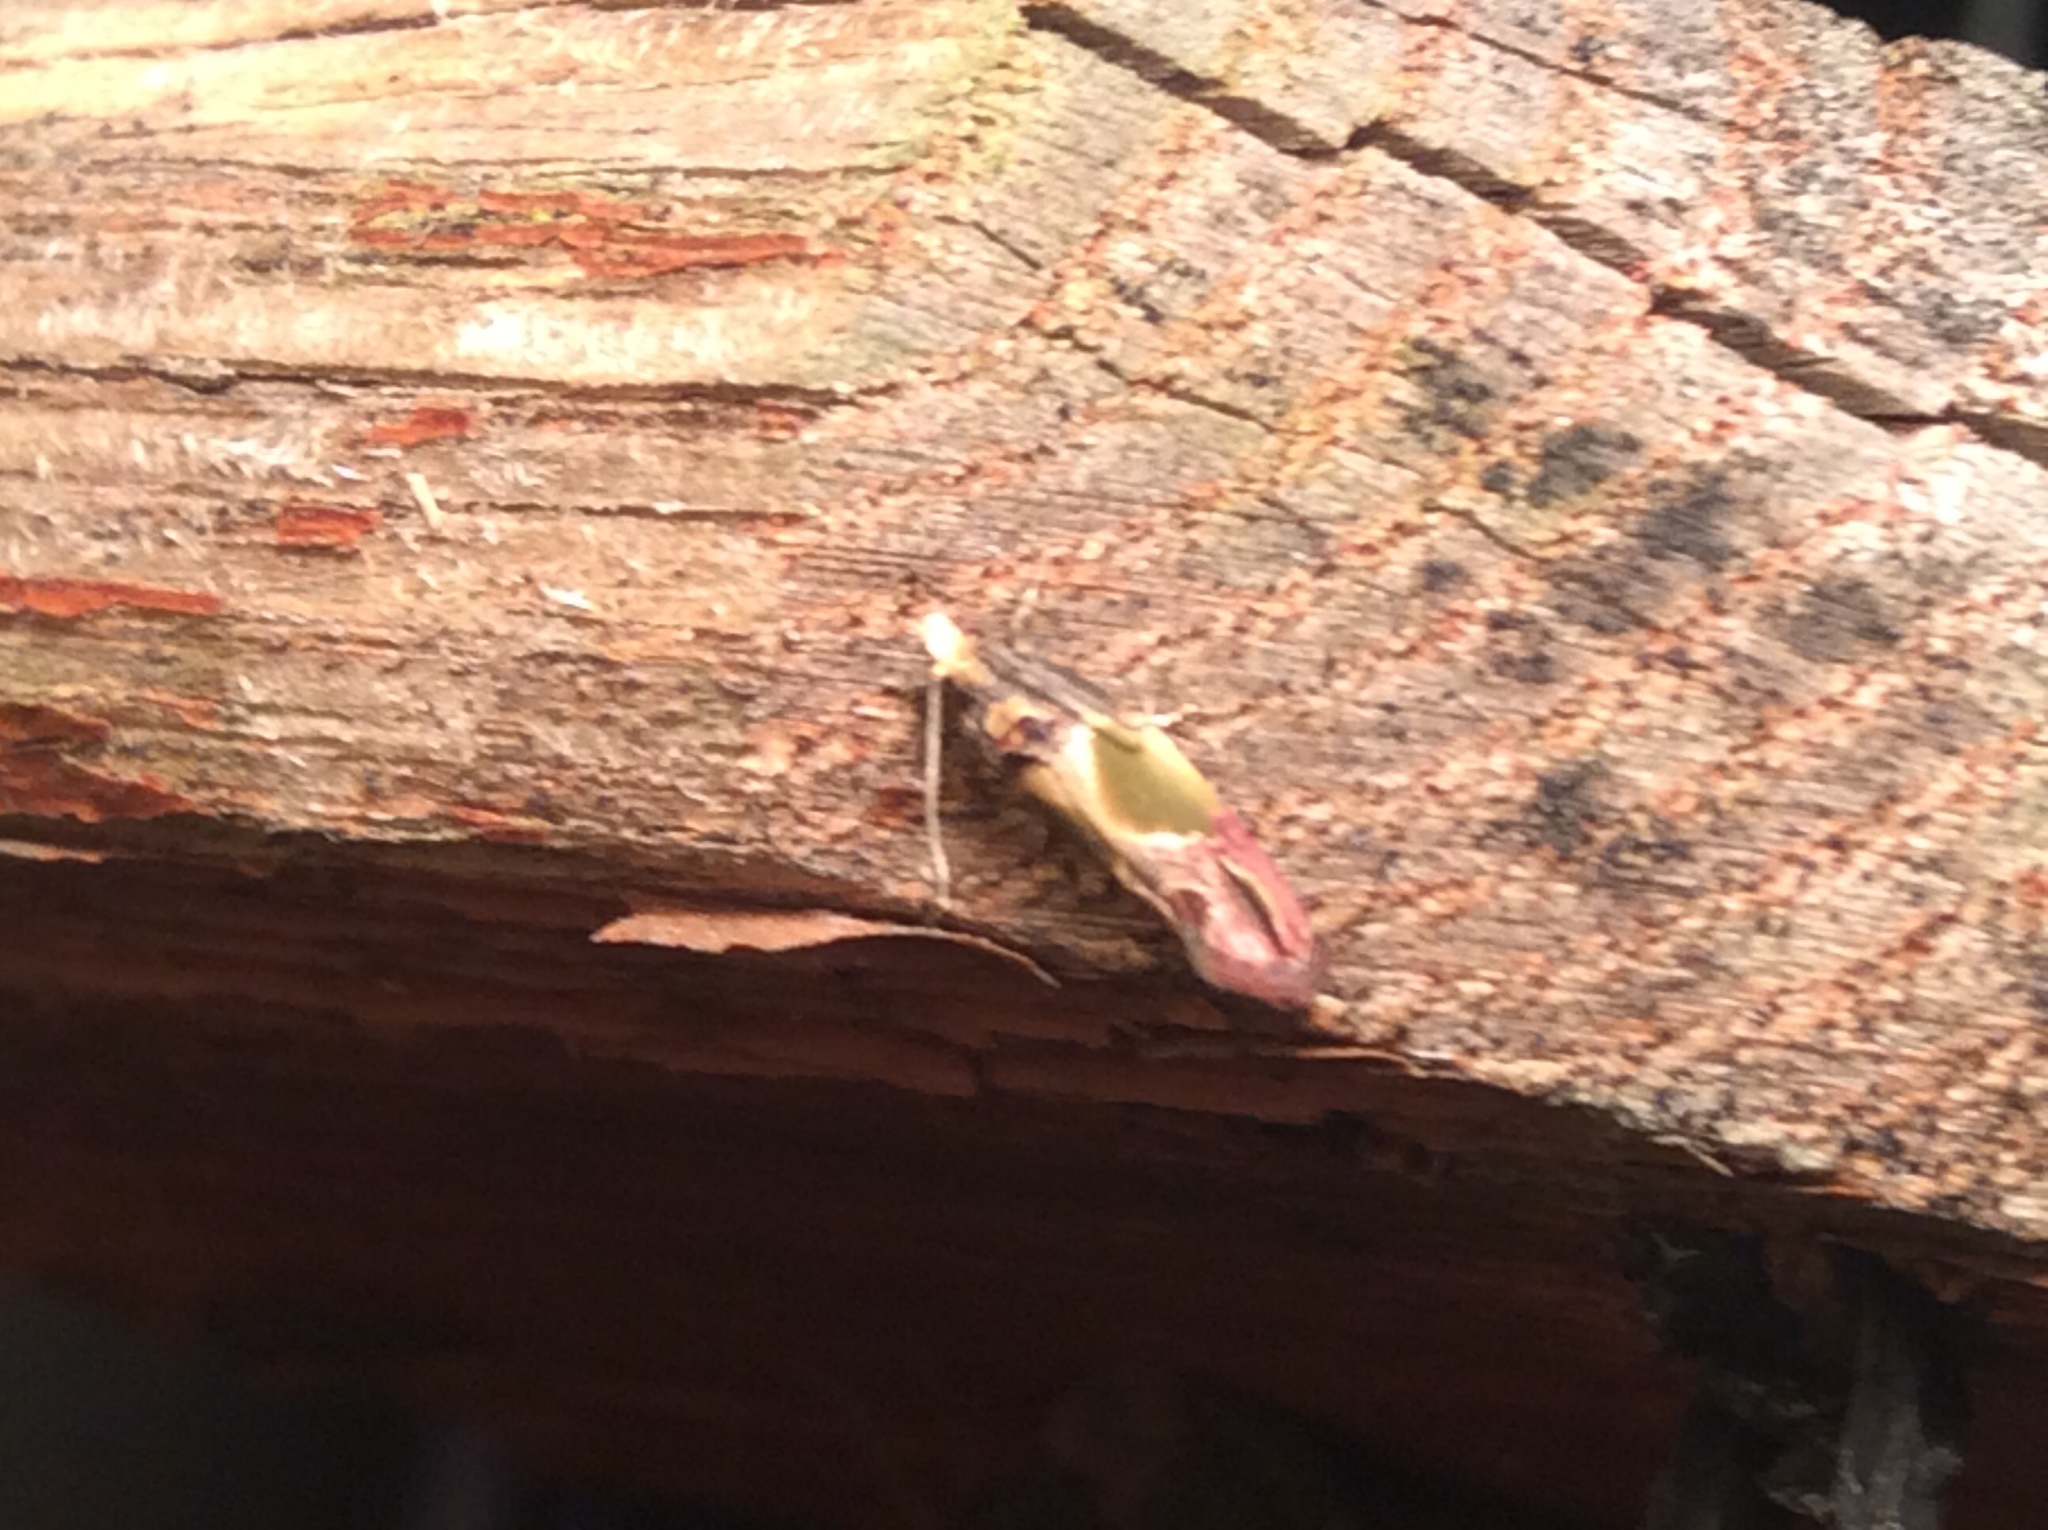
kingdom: Animalia
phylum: Arthropoda
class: Insecta
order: Lepidoptera
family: Tortricidae
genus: Eumarozia
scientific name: Eumarozia malachitana
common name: Sculptured moth
